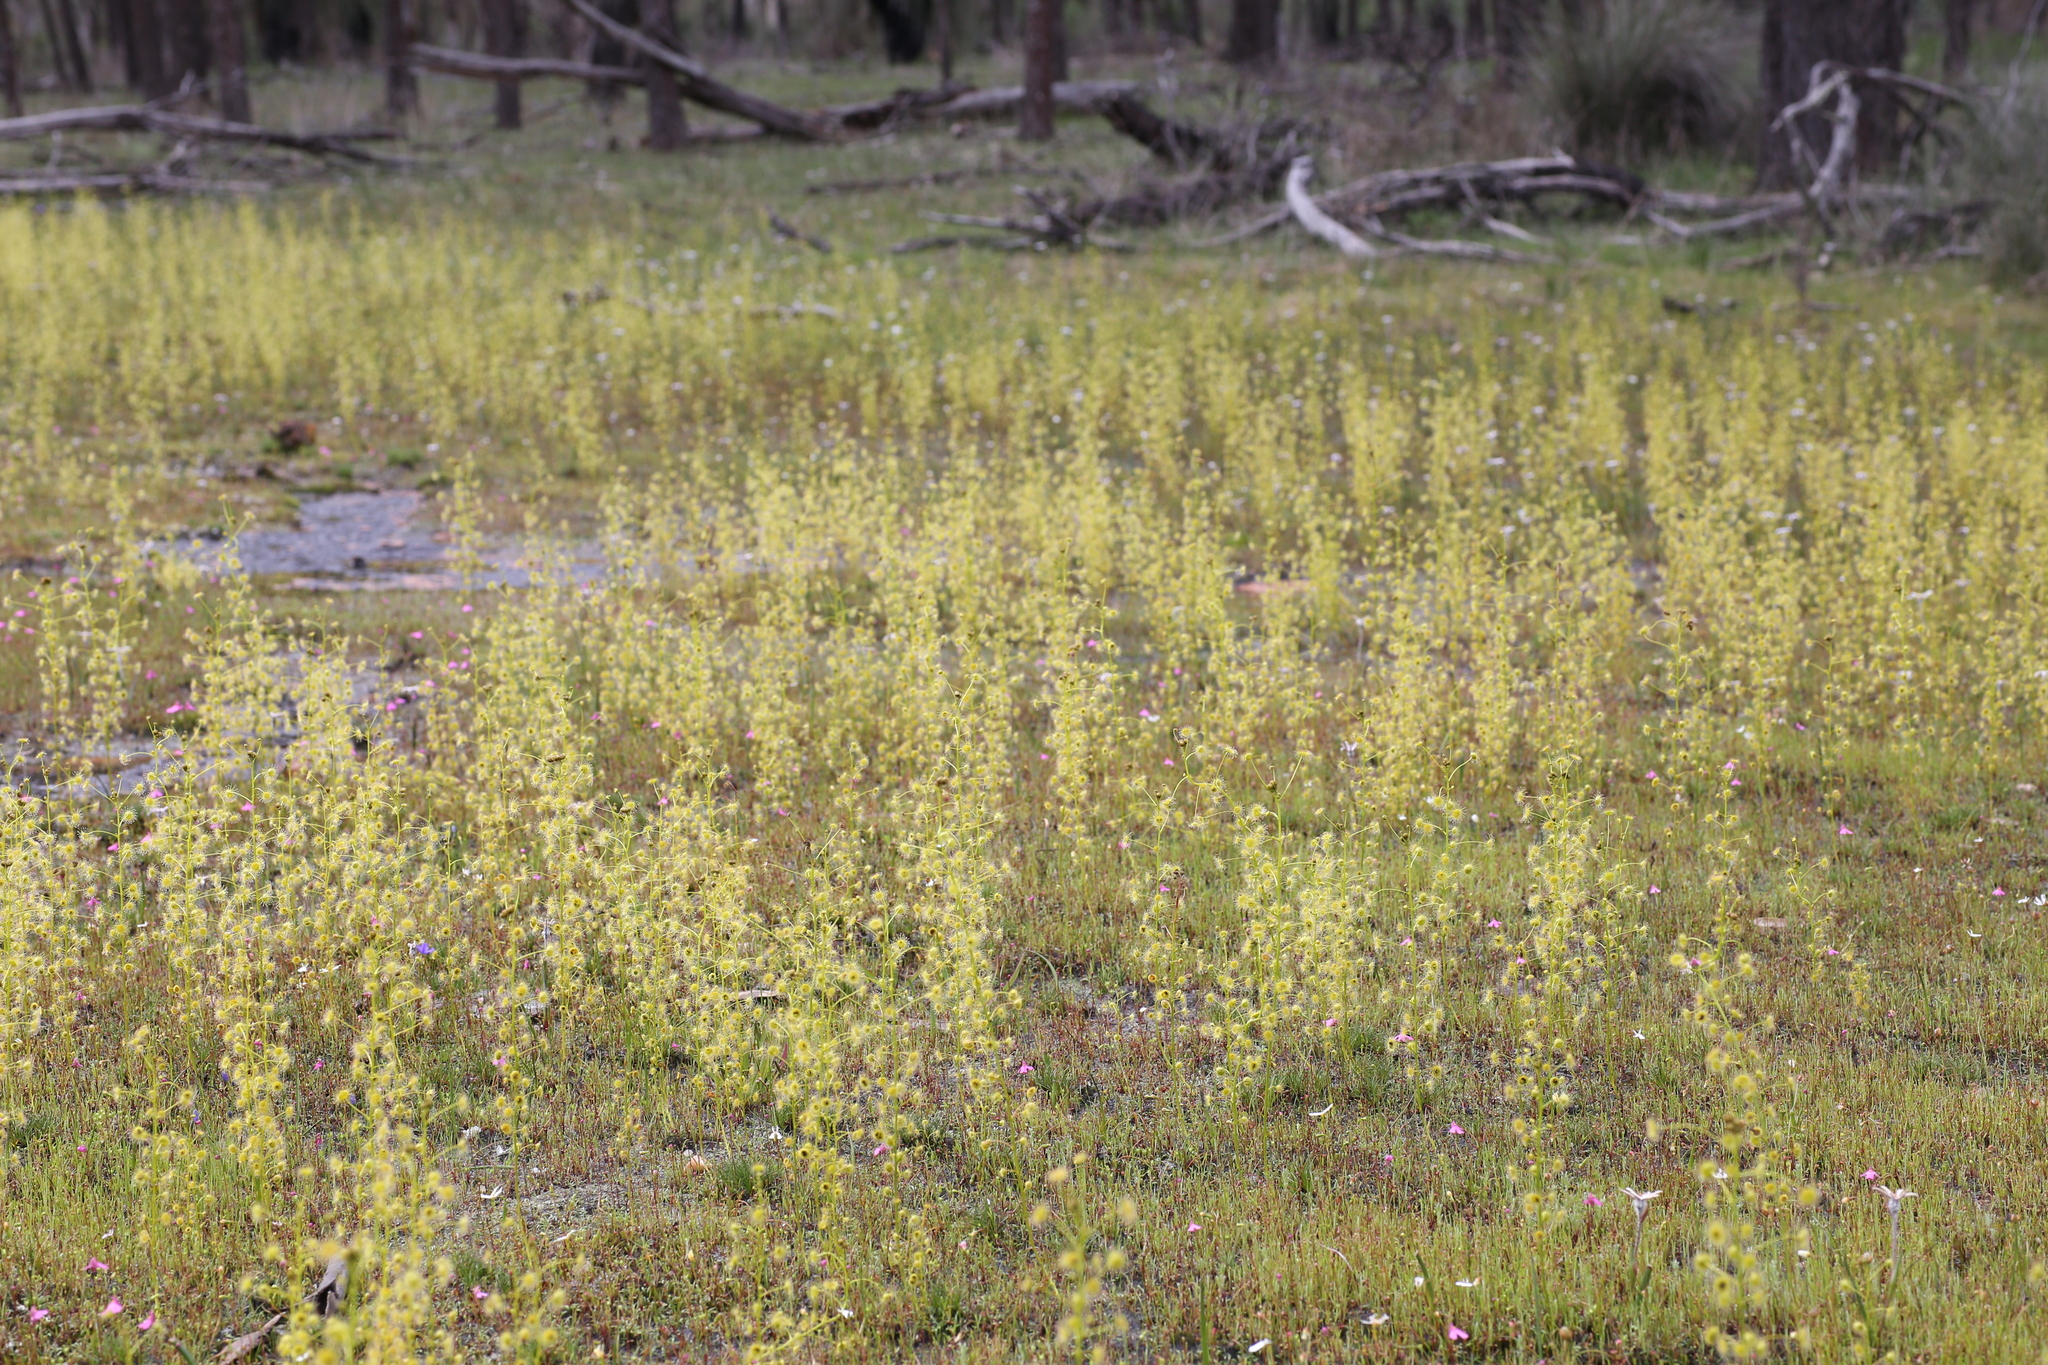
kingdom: Plantae
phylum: Tracheophyta
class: Magnoliopsida
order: Caryophyllales
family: Droseraceae
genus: Drosera
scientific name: Drosera stricticaulis
